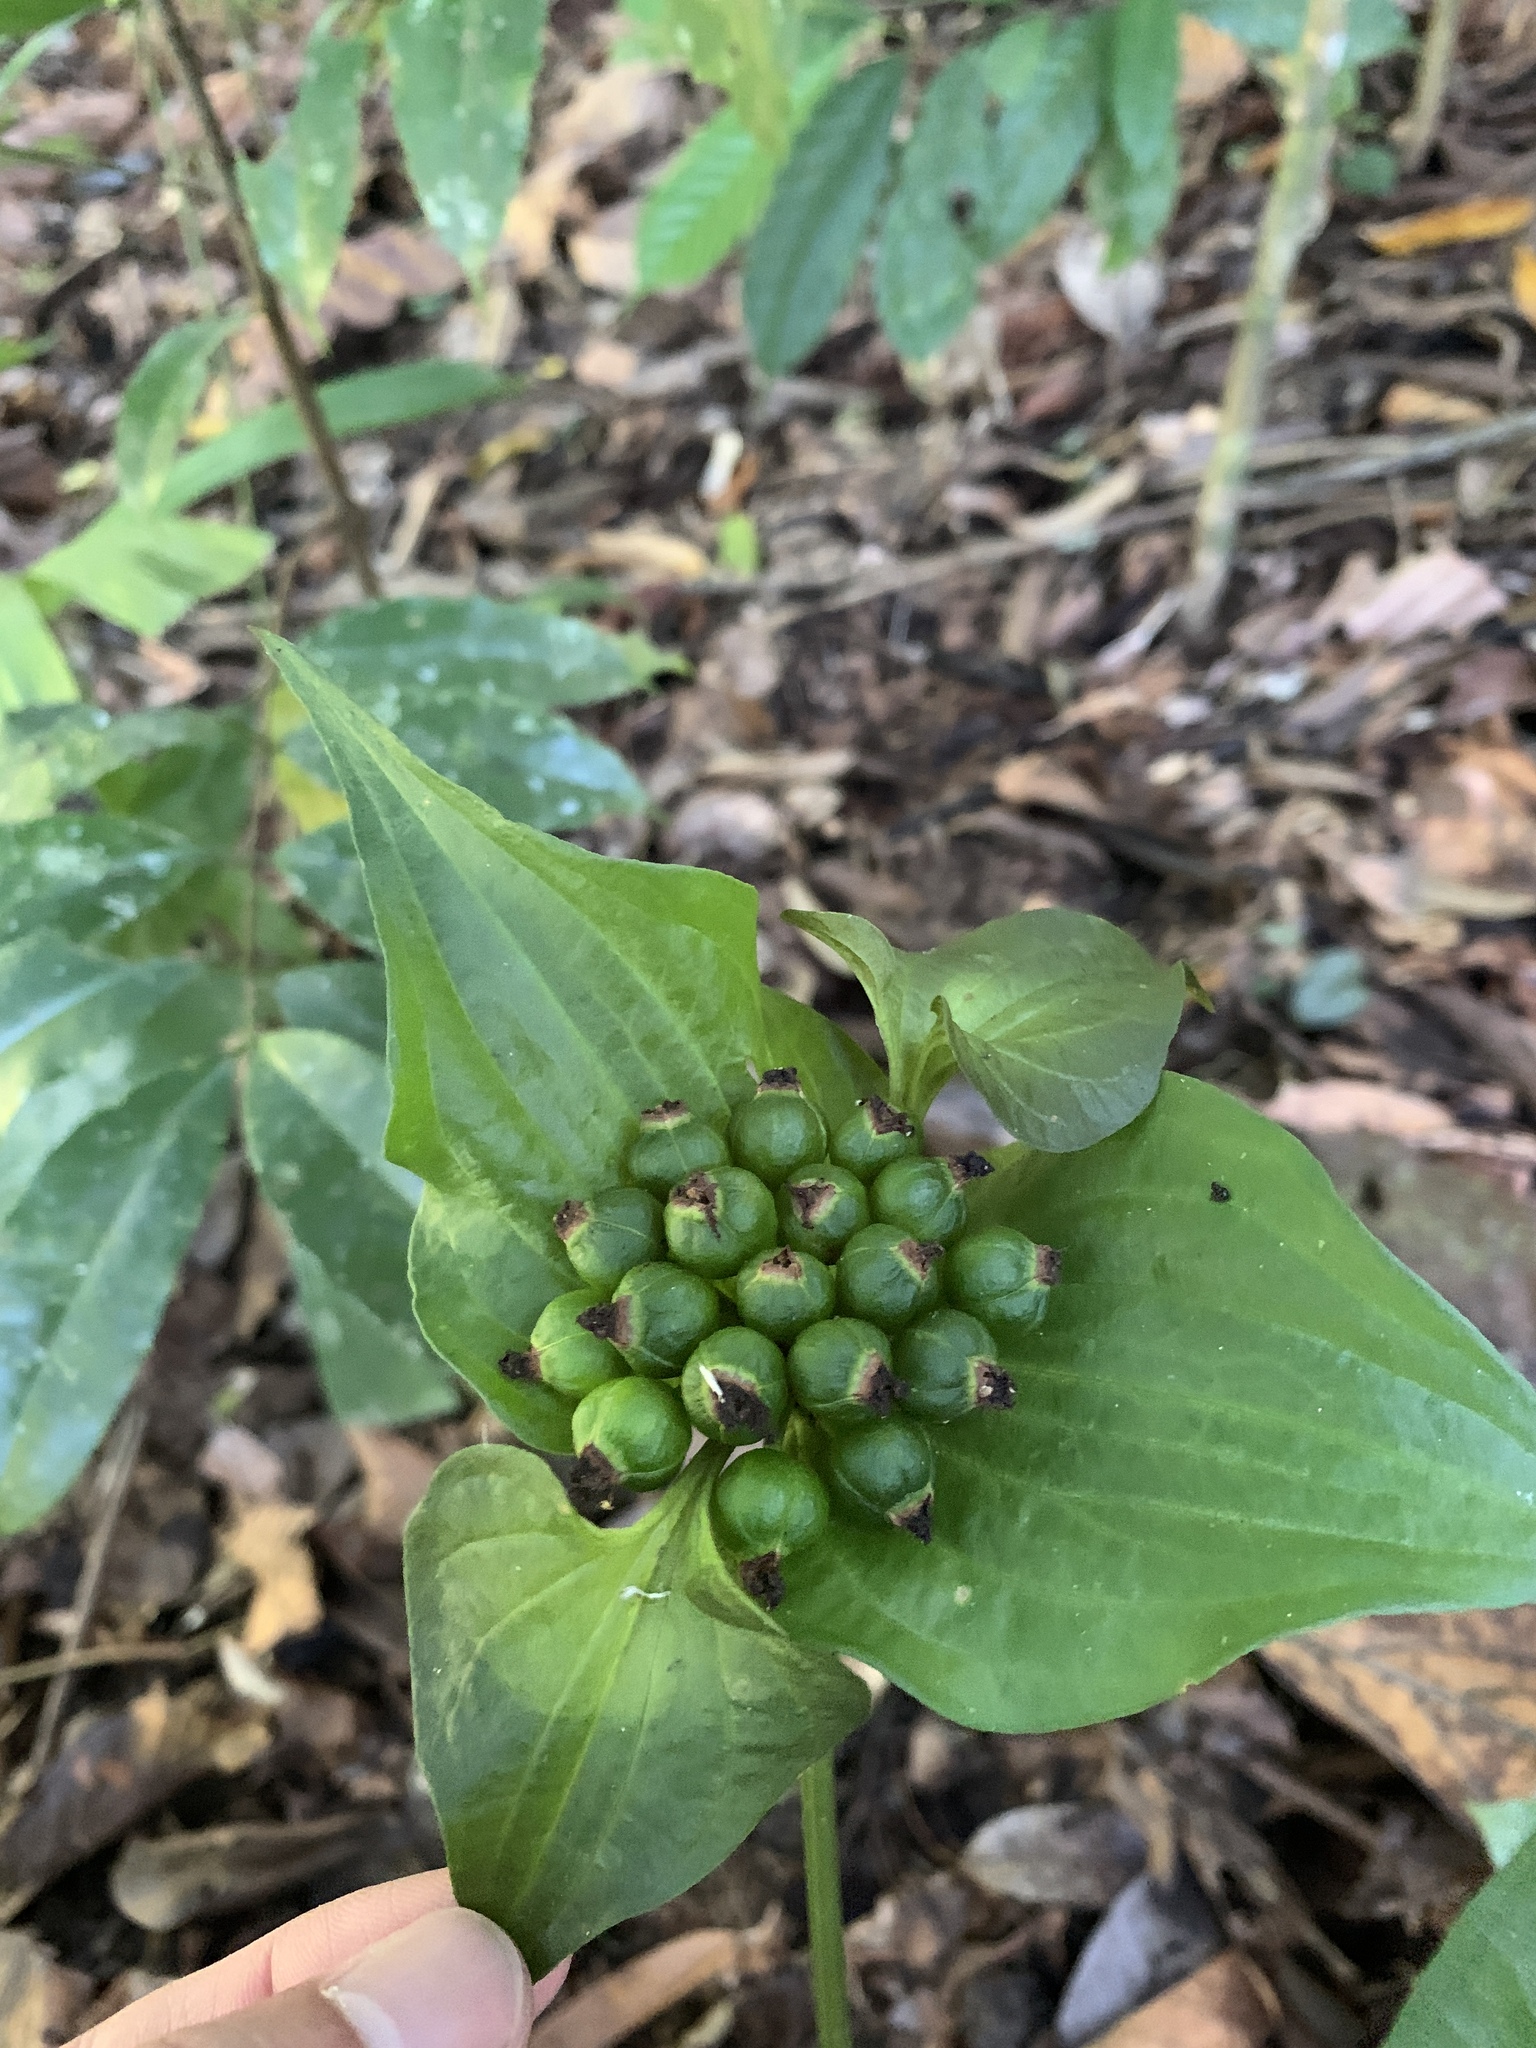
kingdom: Plantae
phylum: Tracheophyta
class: Liliopsida
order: Dioscoreales
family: Dioscoreaceae
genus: Tacca
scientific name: Tacca palmata
